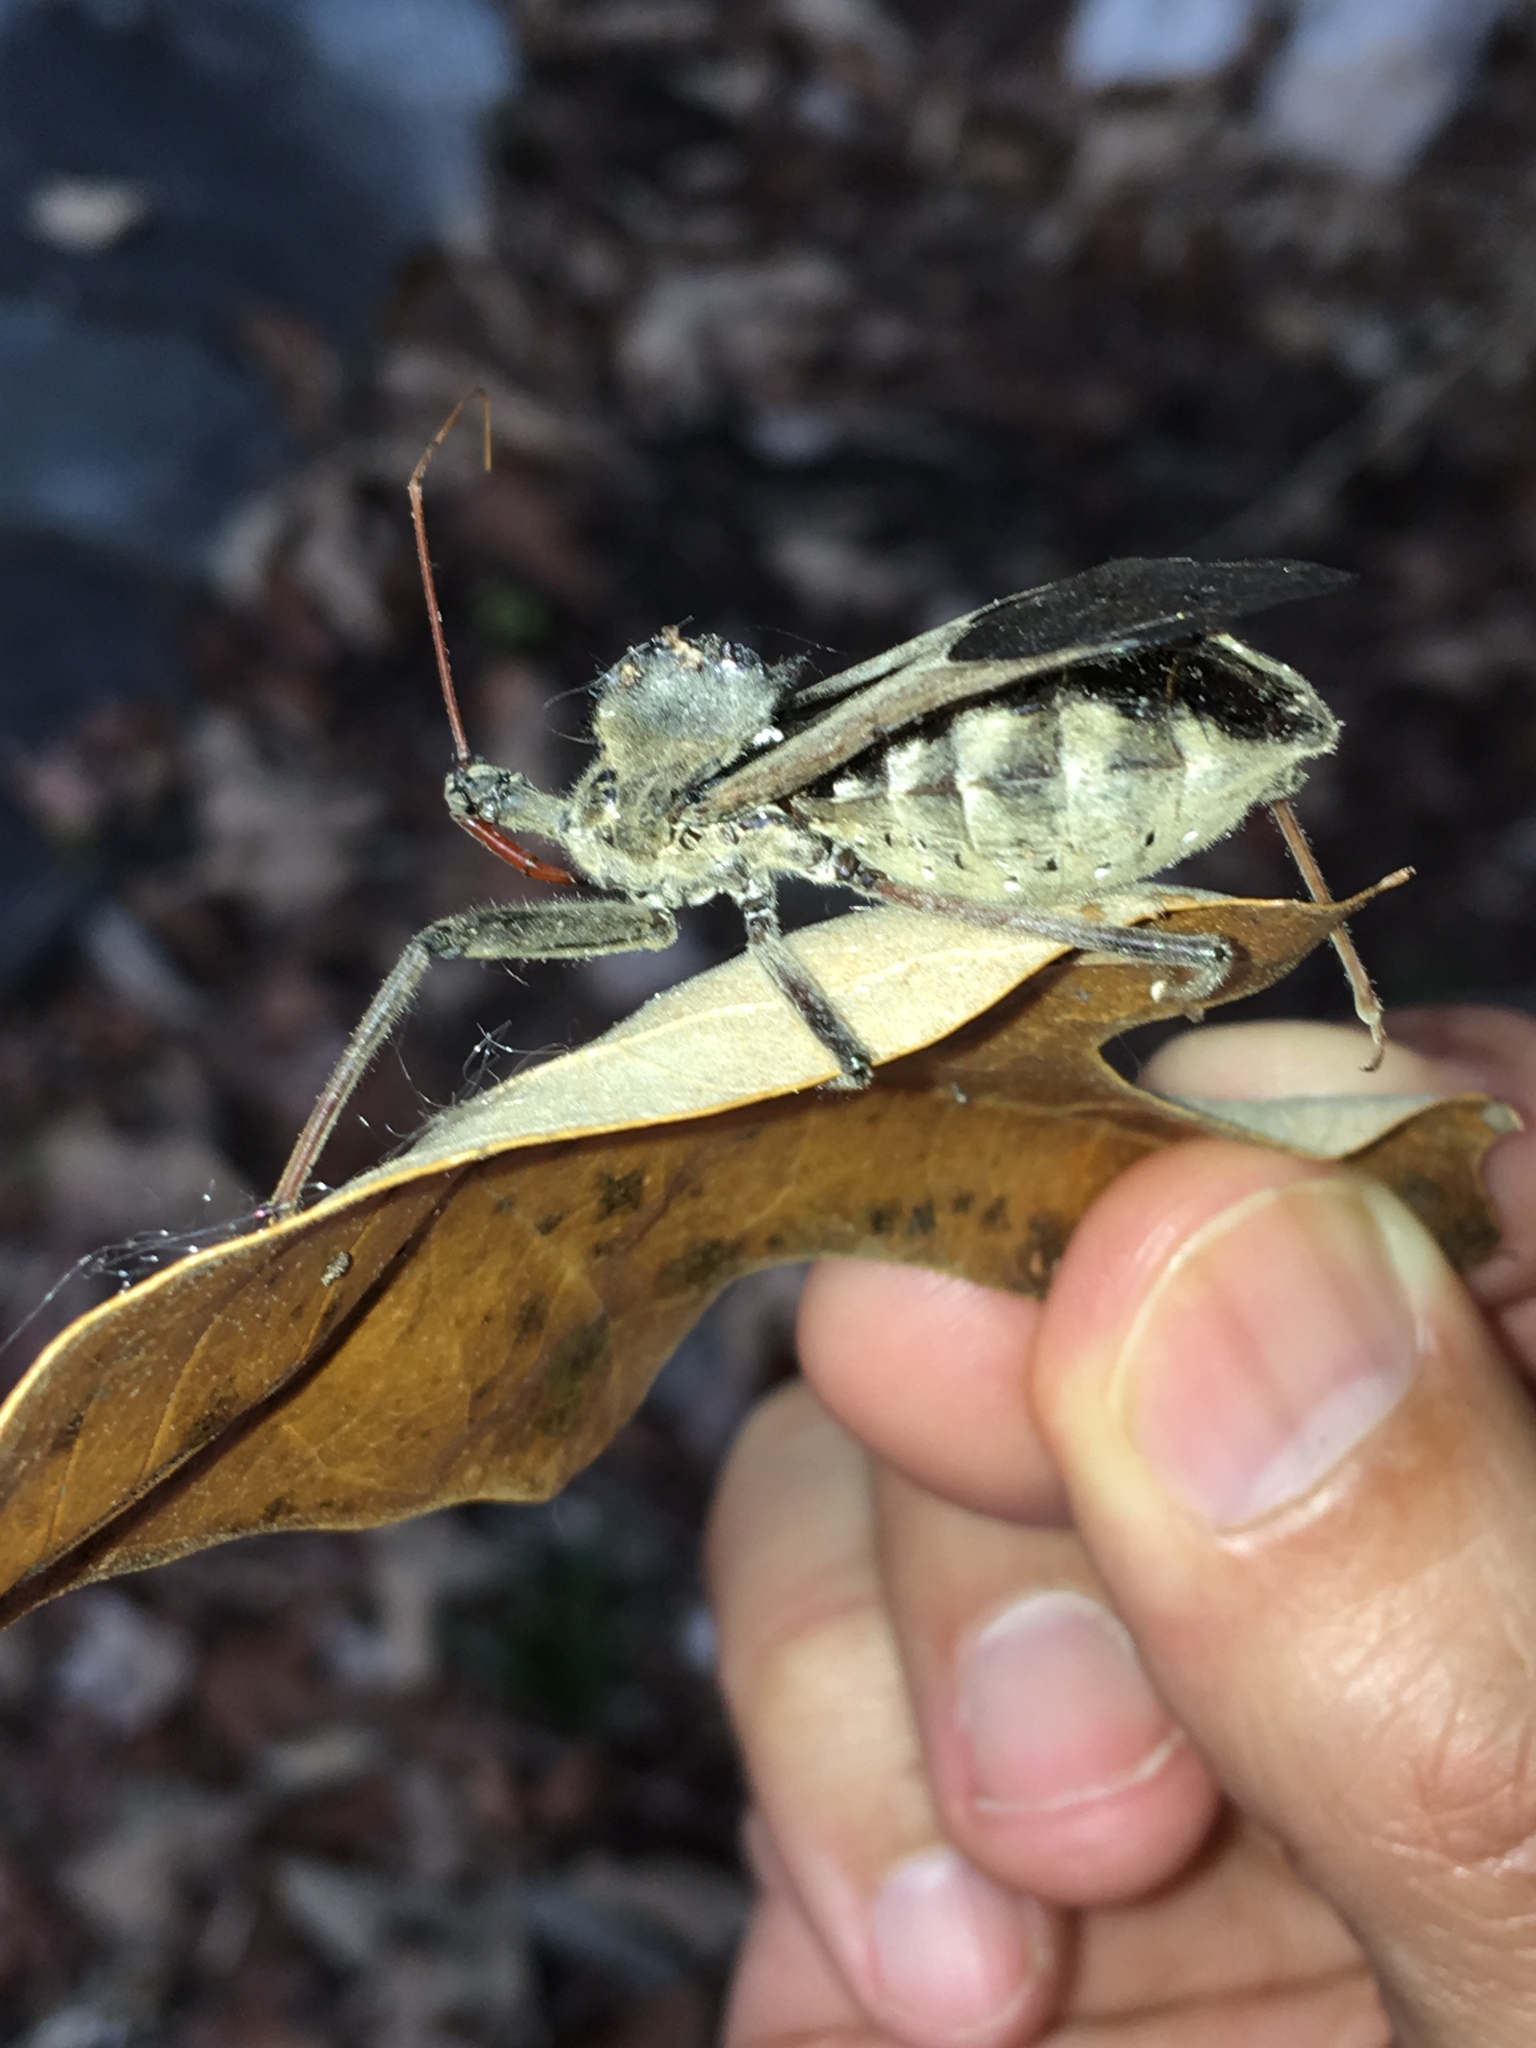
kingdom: Animalia
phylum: Arthropoda
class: Insecta
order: Hemiptera
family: Reduviidae
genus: Arilus
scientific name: Arilus cristatus
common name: North american wheel bug
